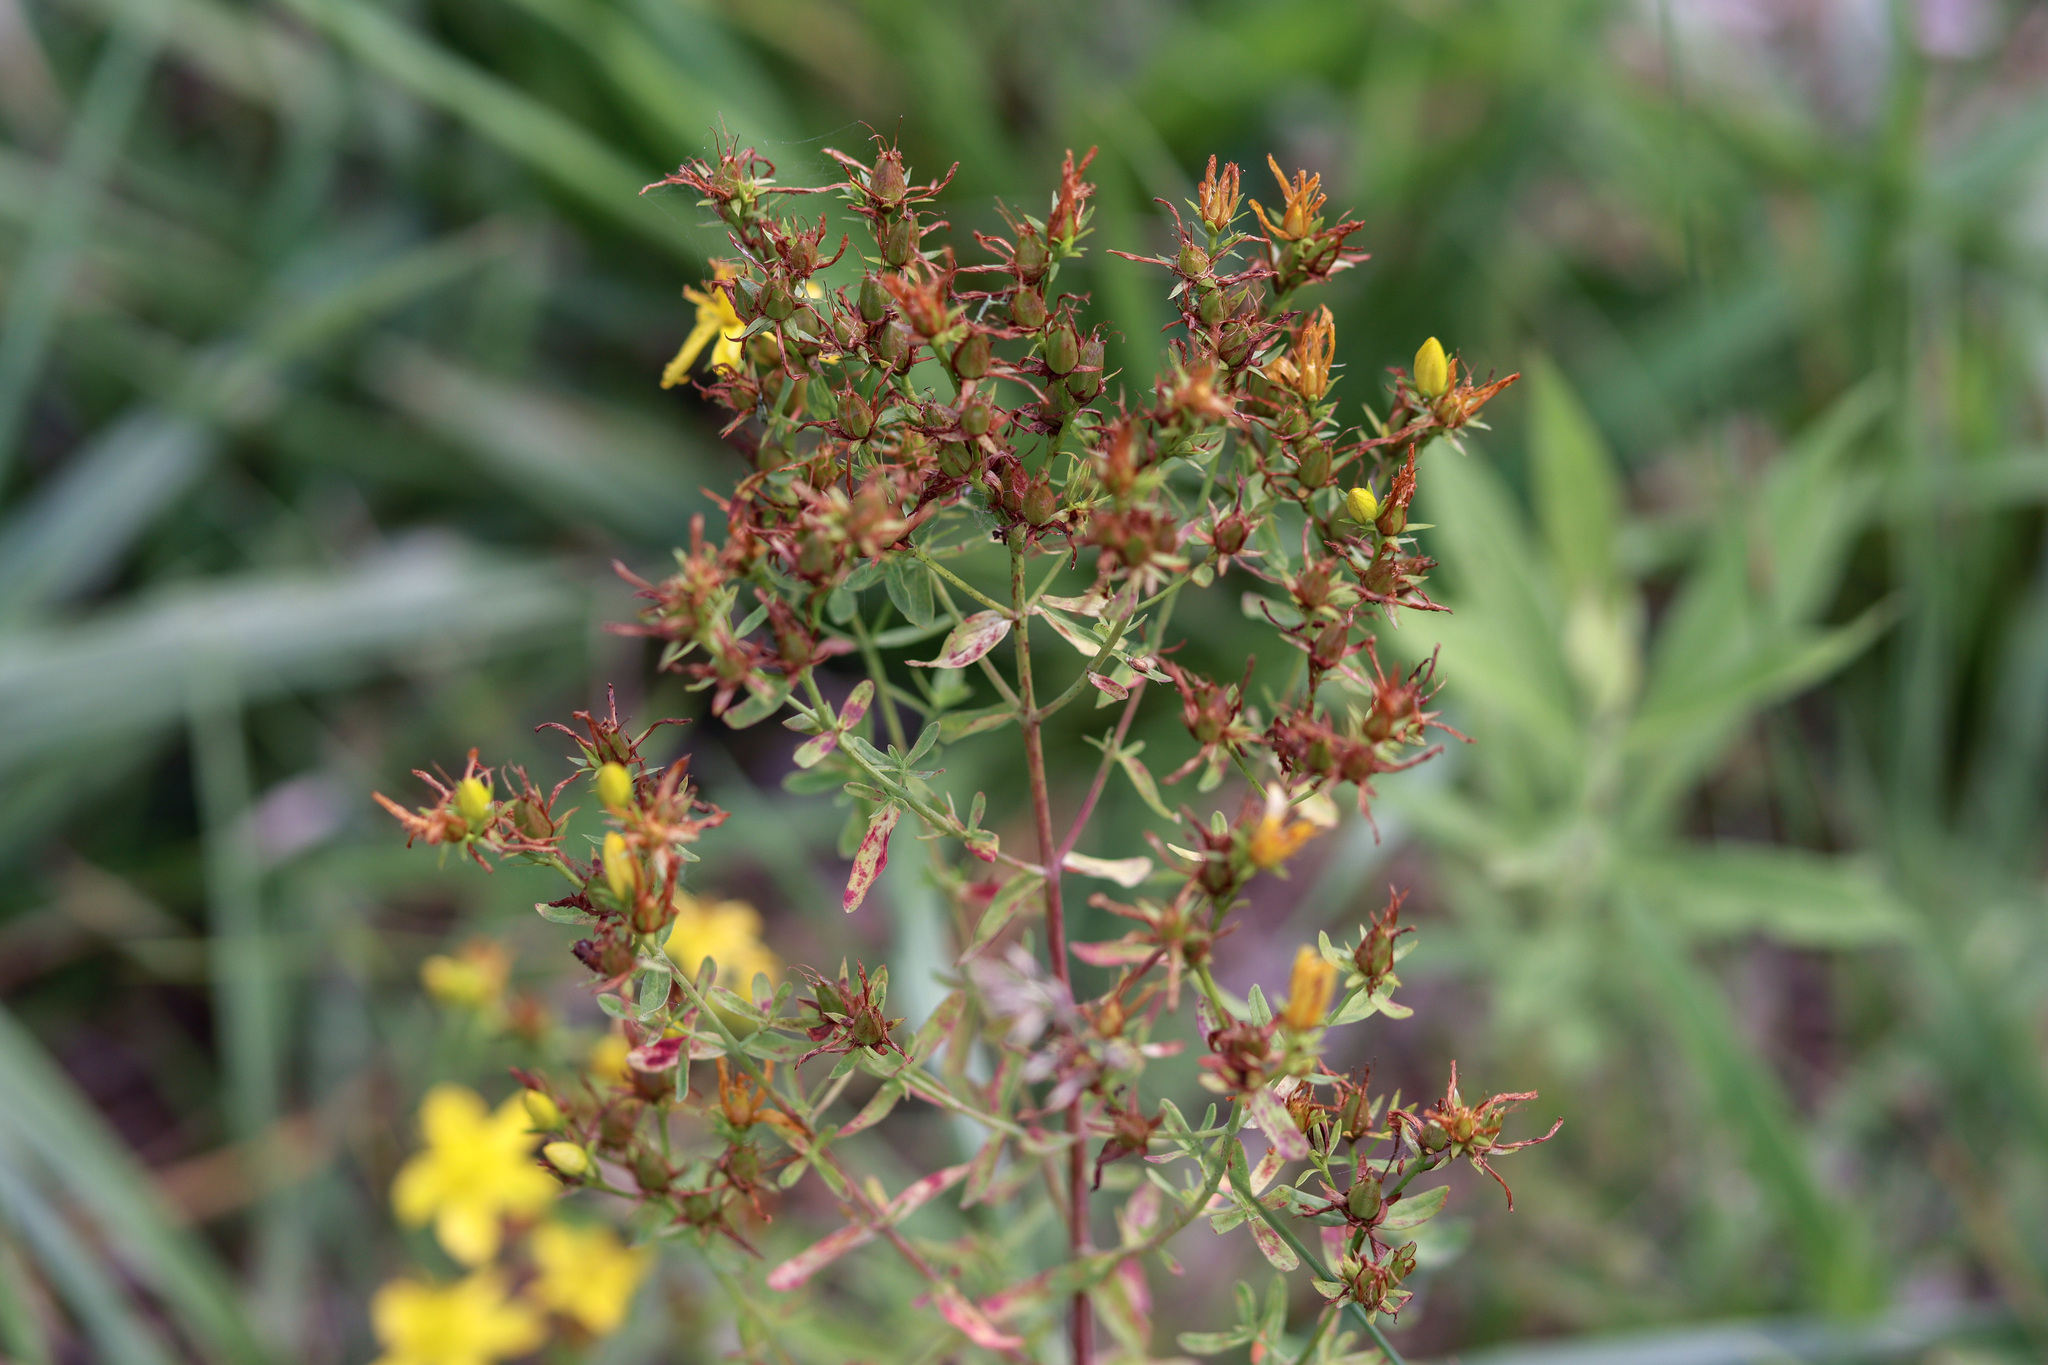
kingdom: Plantae
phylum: Tracheophyta
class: Magnoliopsida
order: Malpighiales
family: Hypericaceae
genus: Hypericum
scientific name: Hypericum perforatum
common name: Common st. johnswort
